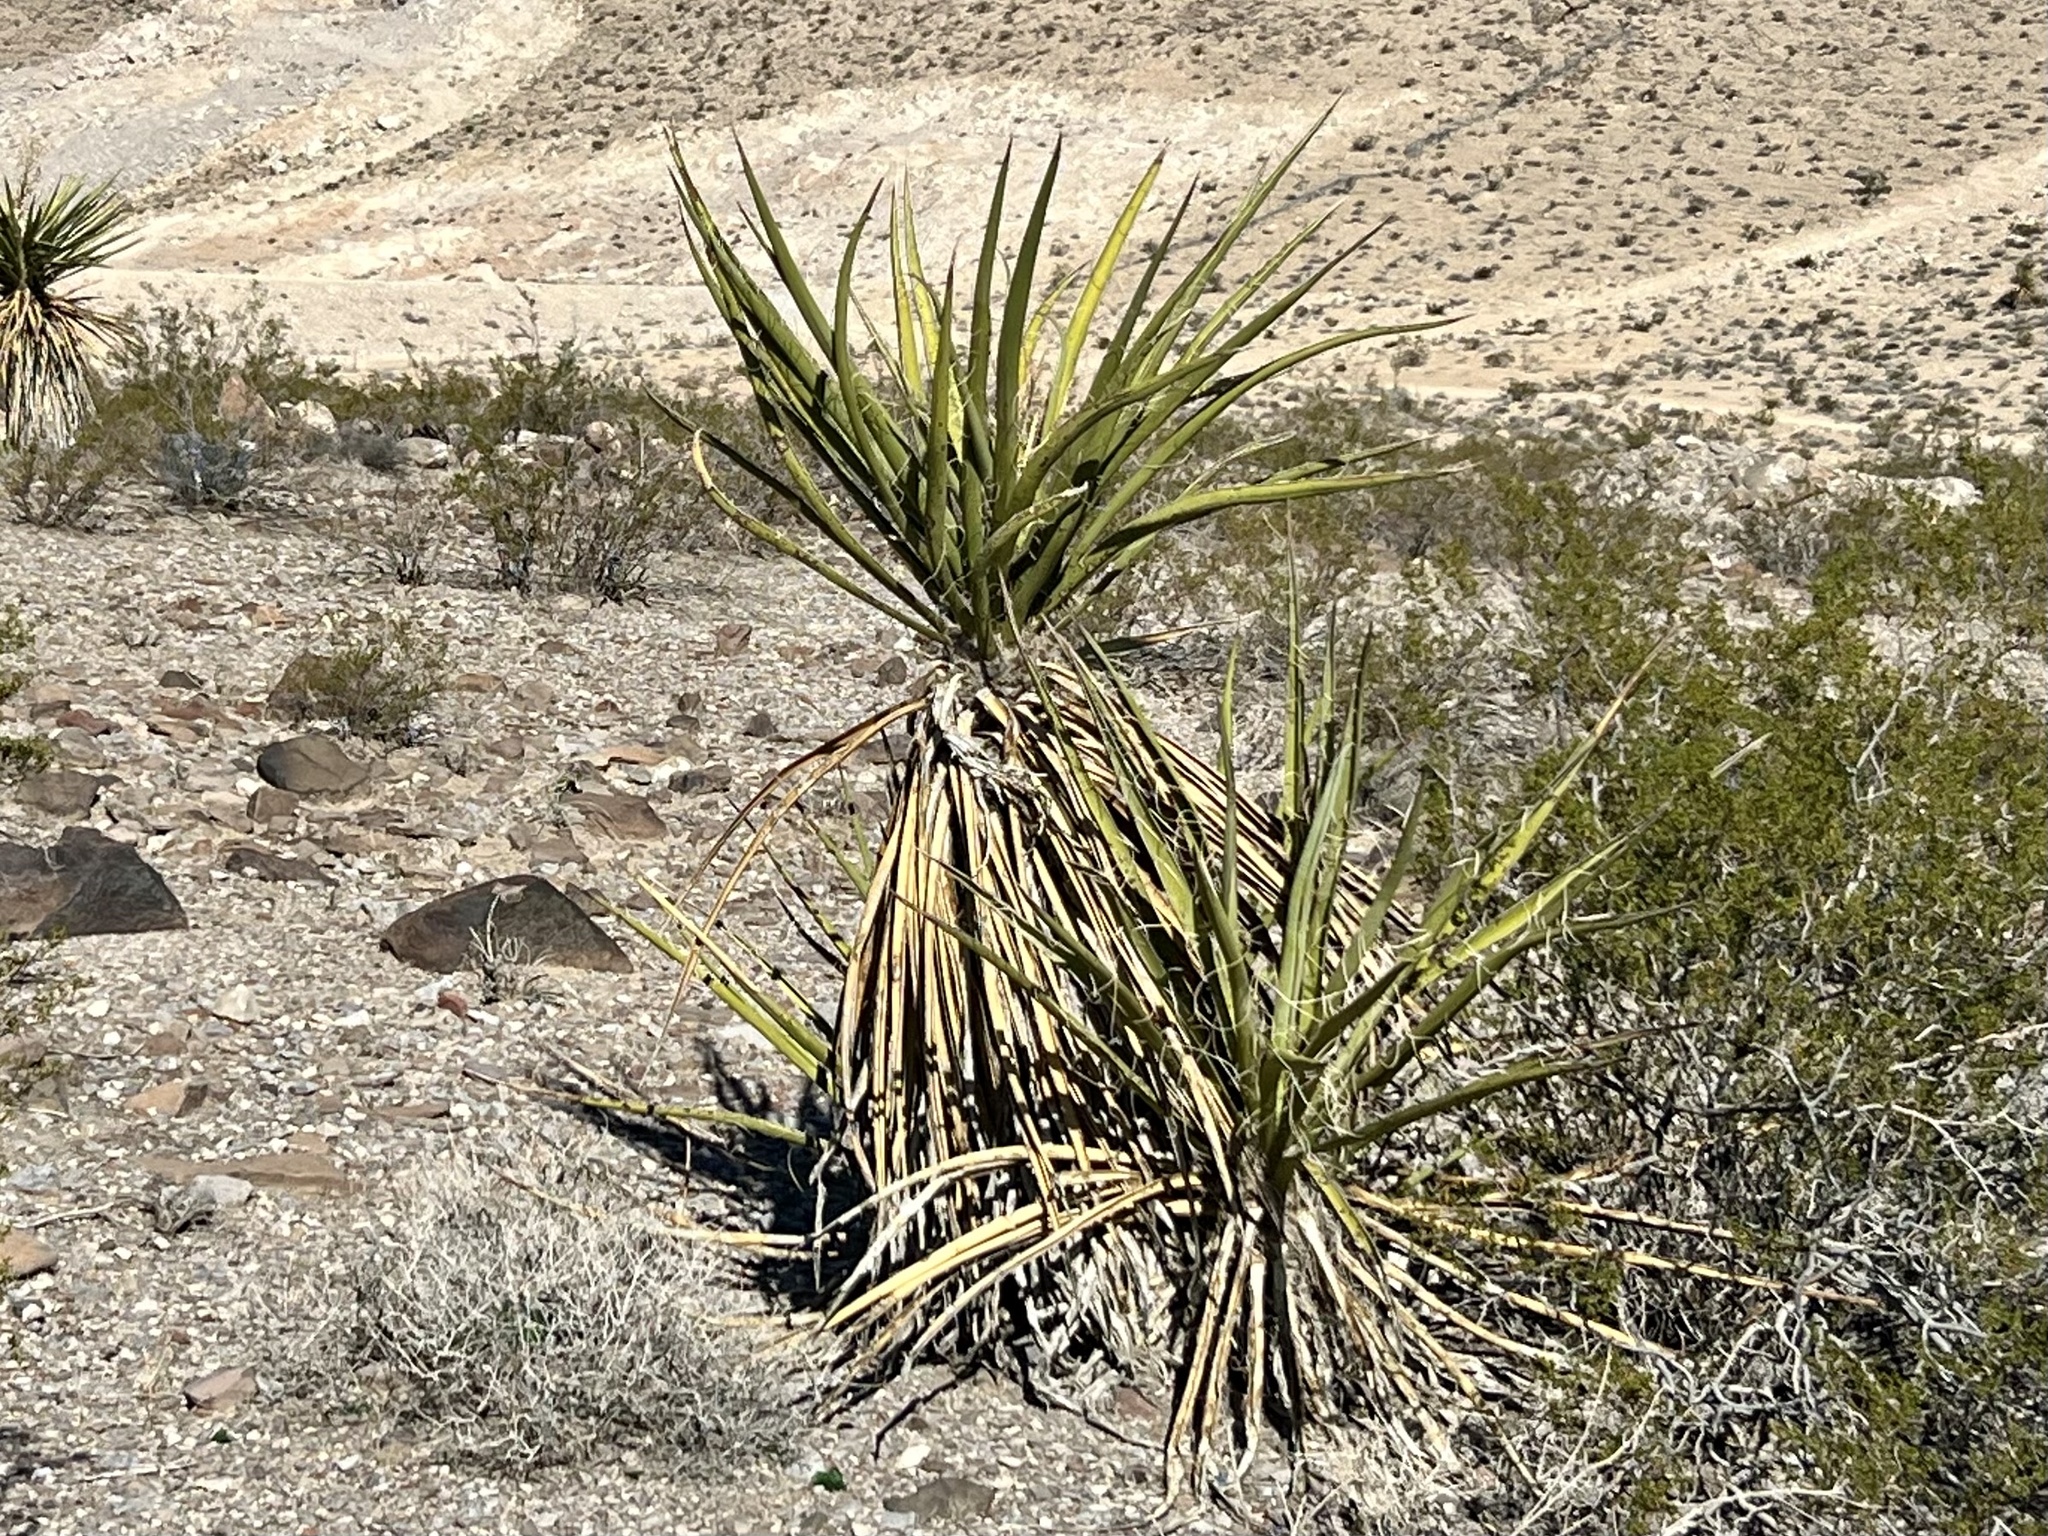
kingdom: Plantae
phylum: Tracheophyta
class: Liliopsida
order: Asparagales
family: Asparagaceae
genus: Yucca
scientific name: Yucca schidigera
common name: Mojave yucca
